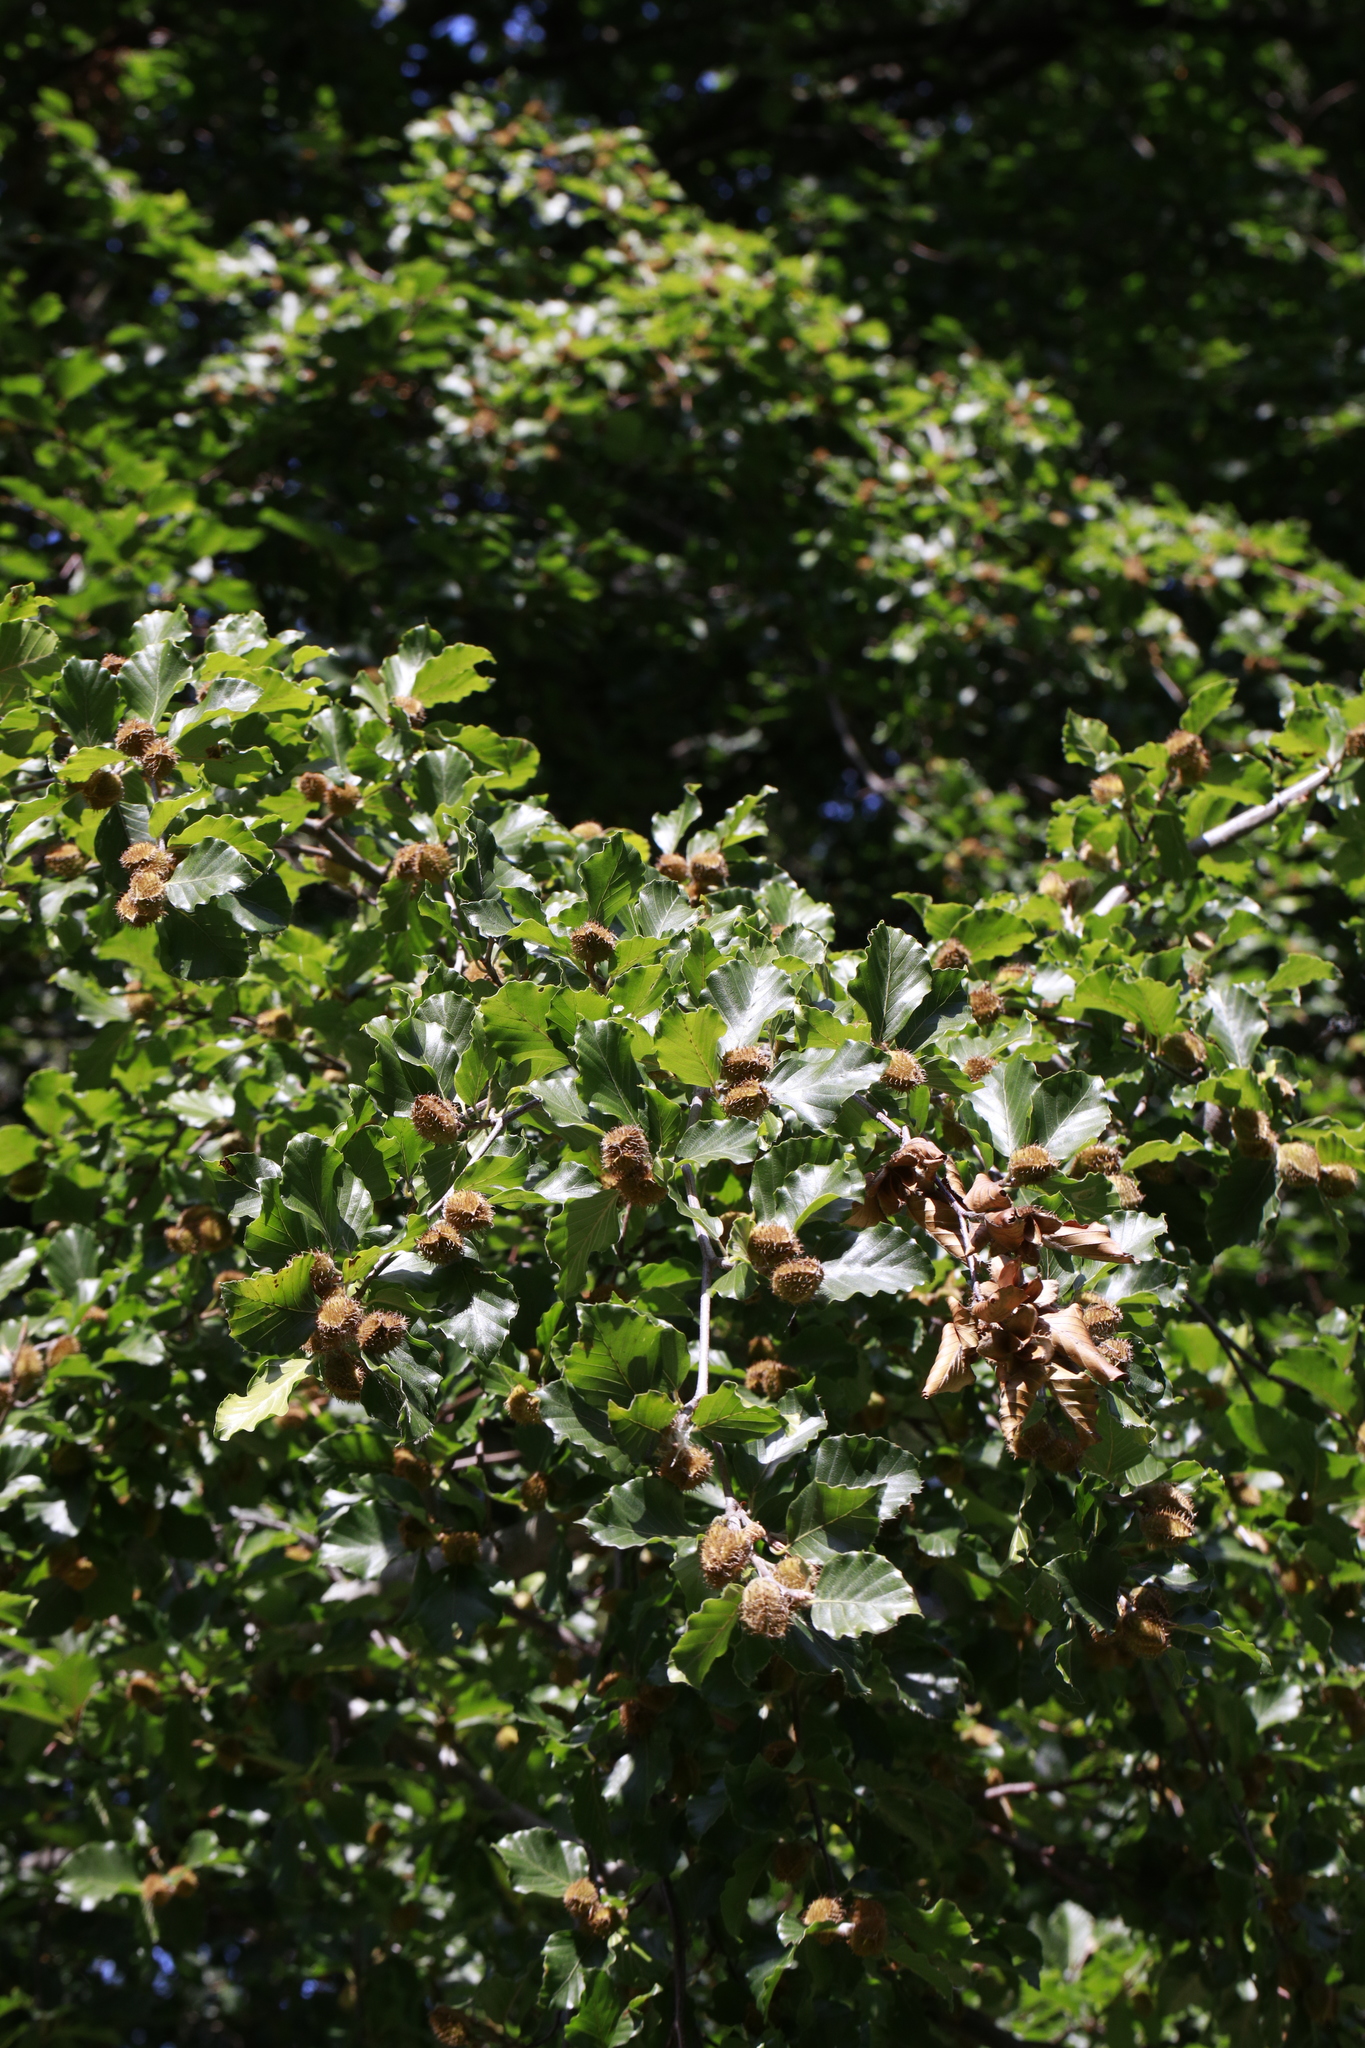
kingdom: Plantae
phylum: Tracheophyta
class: Magnoliopsida
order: Fagales
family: Fagaceae
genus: Fagus
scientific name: Fagus sylvatica
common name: Beech
